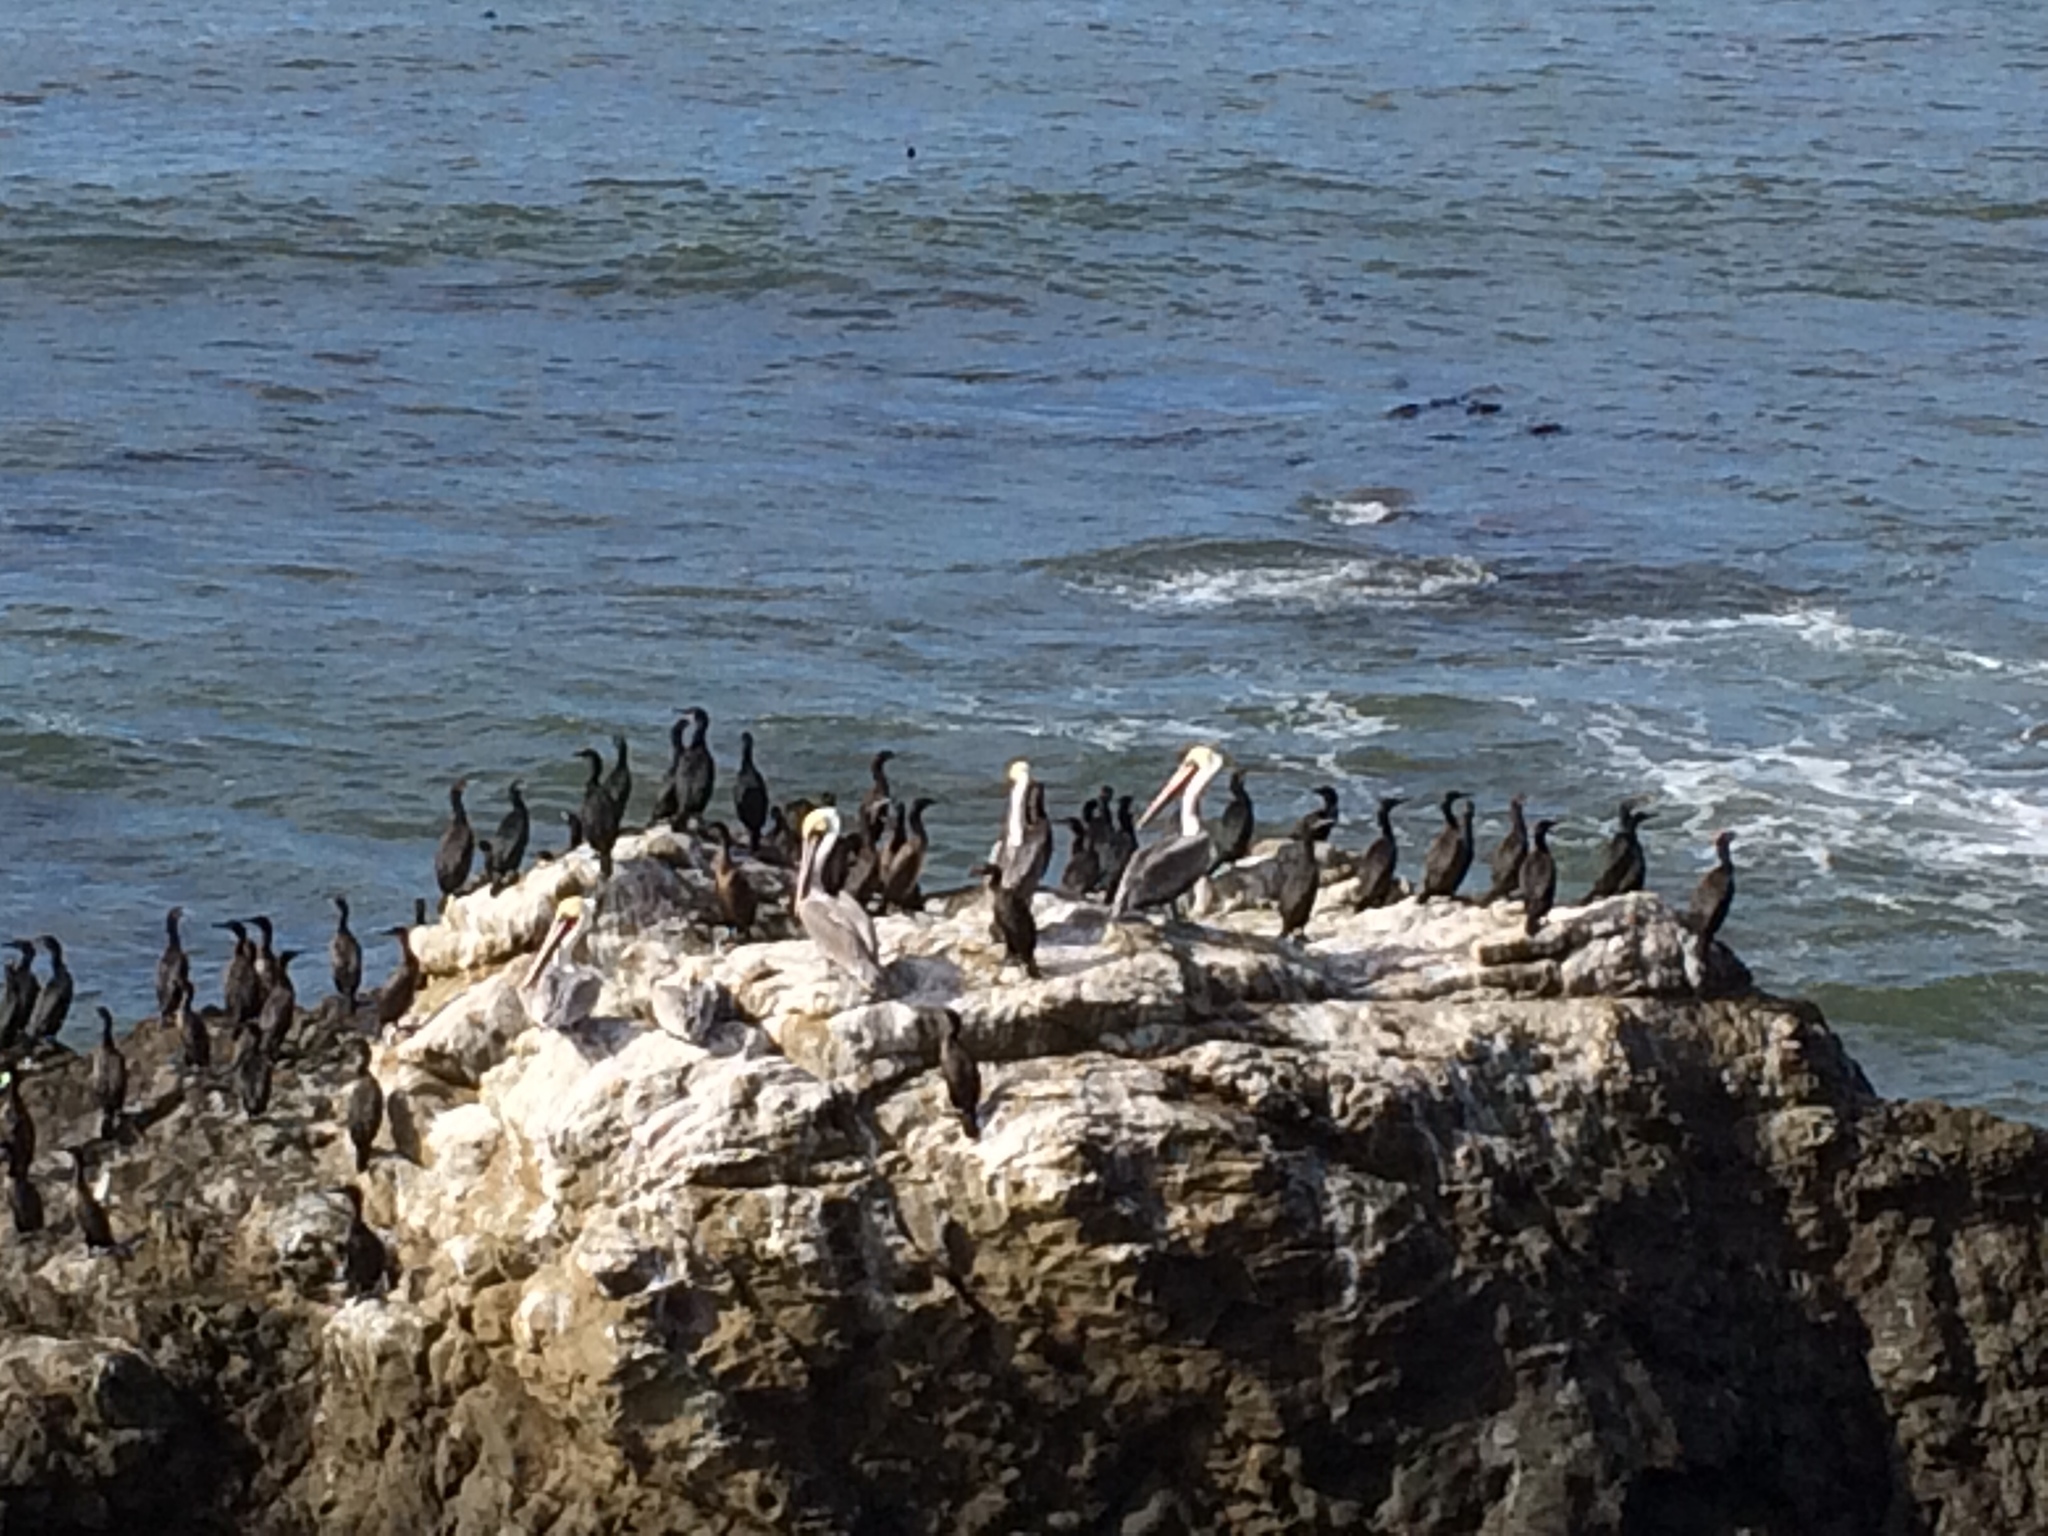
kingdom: Animalia
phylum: Chordata
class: Aves
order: Pelecaniformes
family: Pelecanidae
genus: Pelecanus
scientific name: Pelecanus occidentalis
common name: Brown pelican
